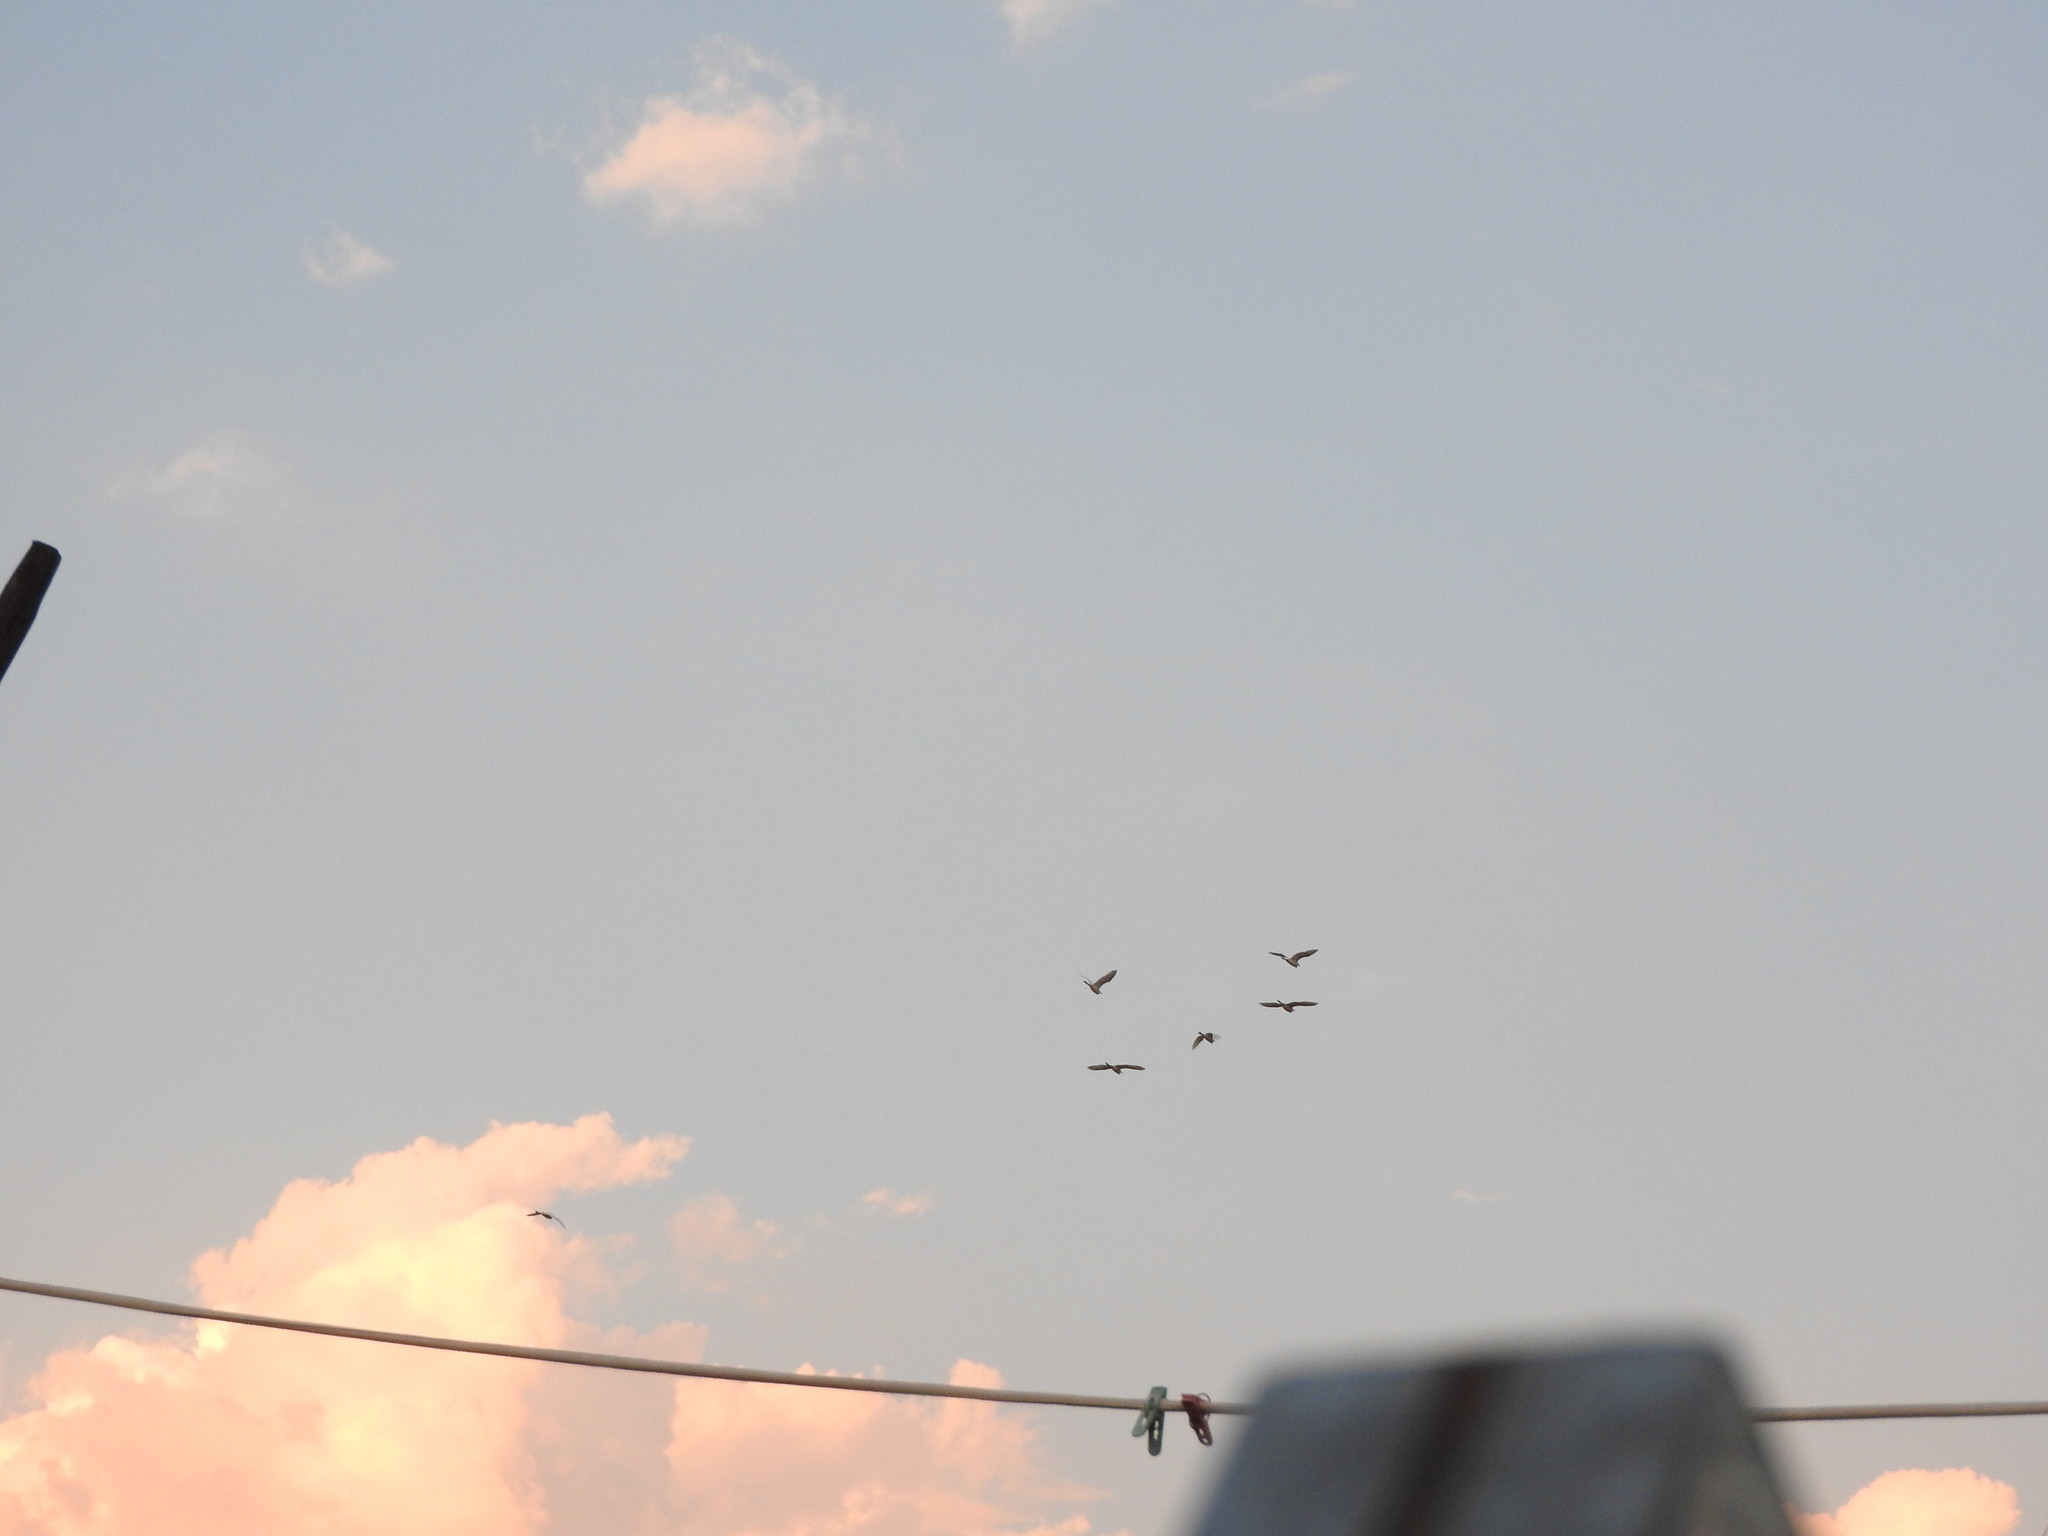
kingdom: Animalia
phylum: Chordata
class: Aves
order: Pelecaniformes
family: Ardeidae
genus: Bubulcus
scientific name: Bubulcus ibis
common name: Cattle egret
